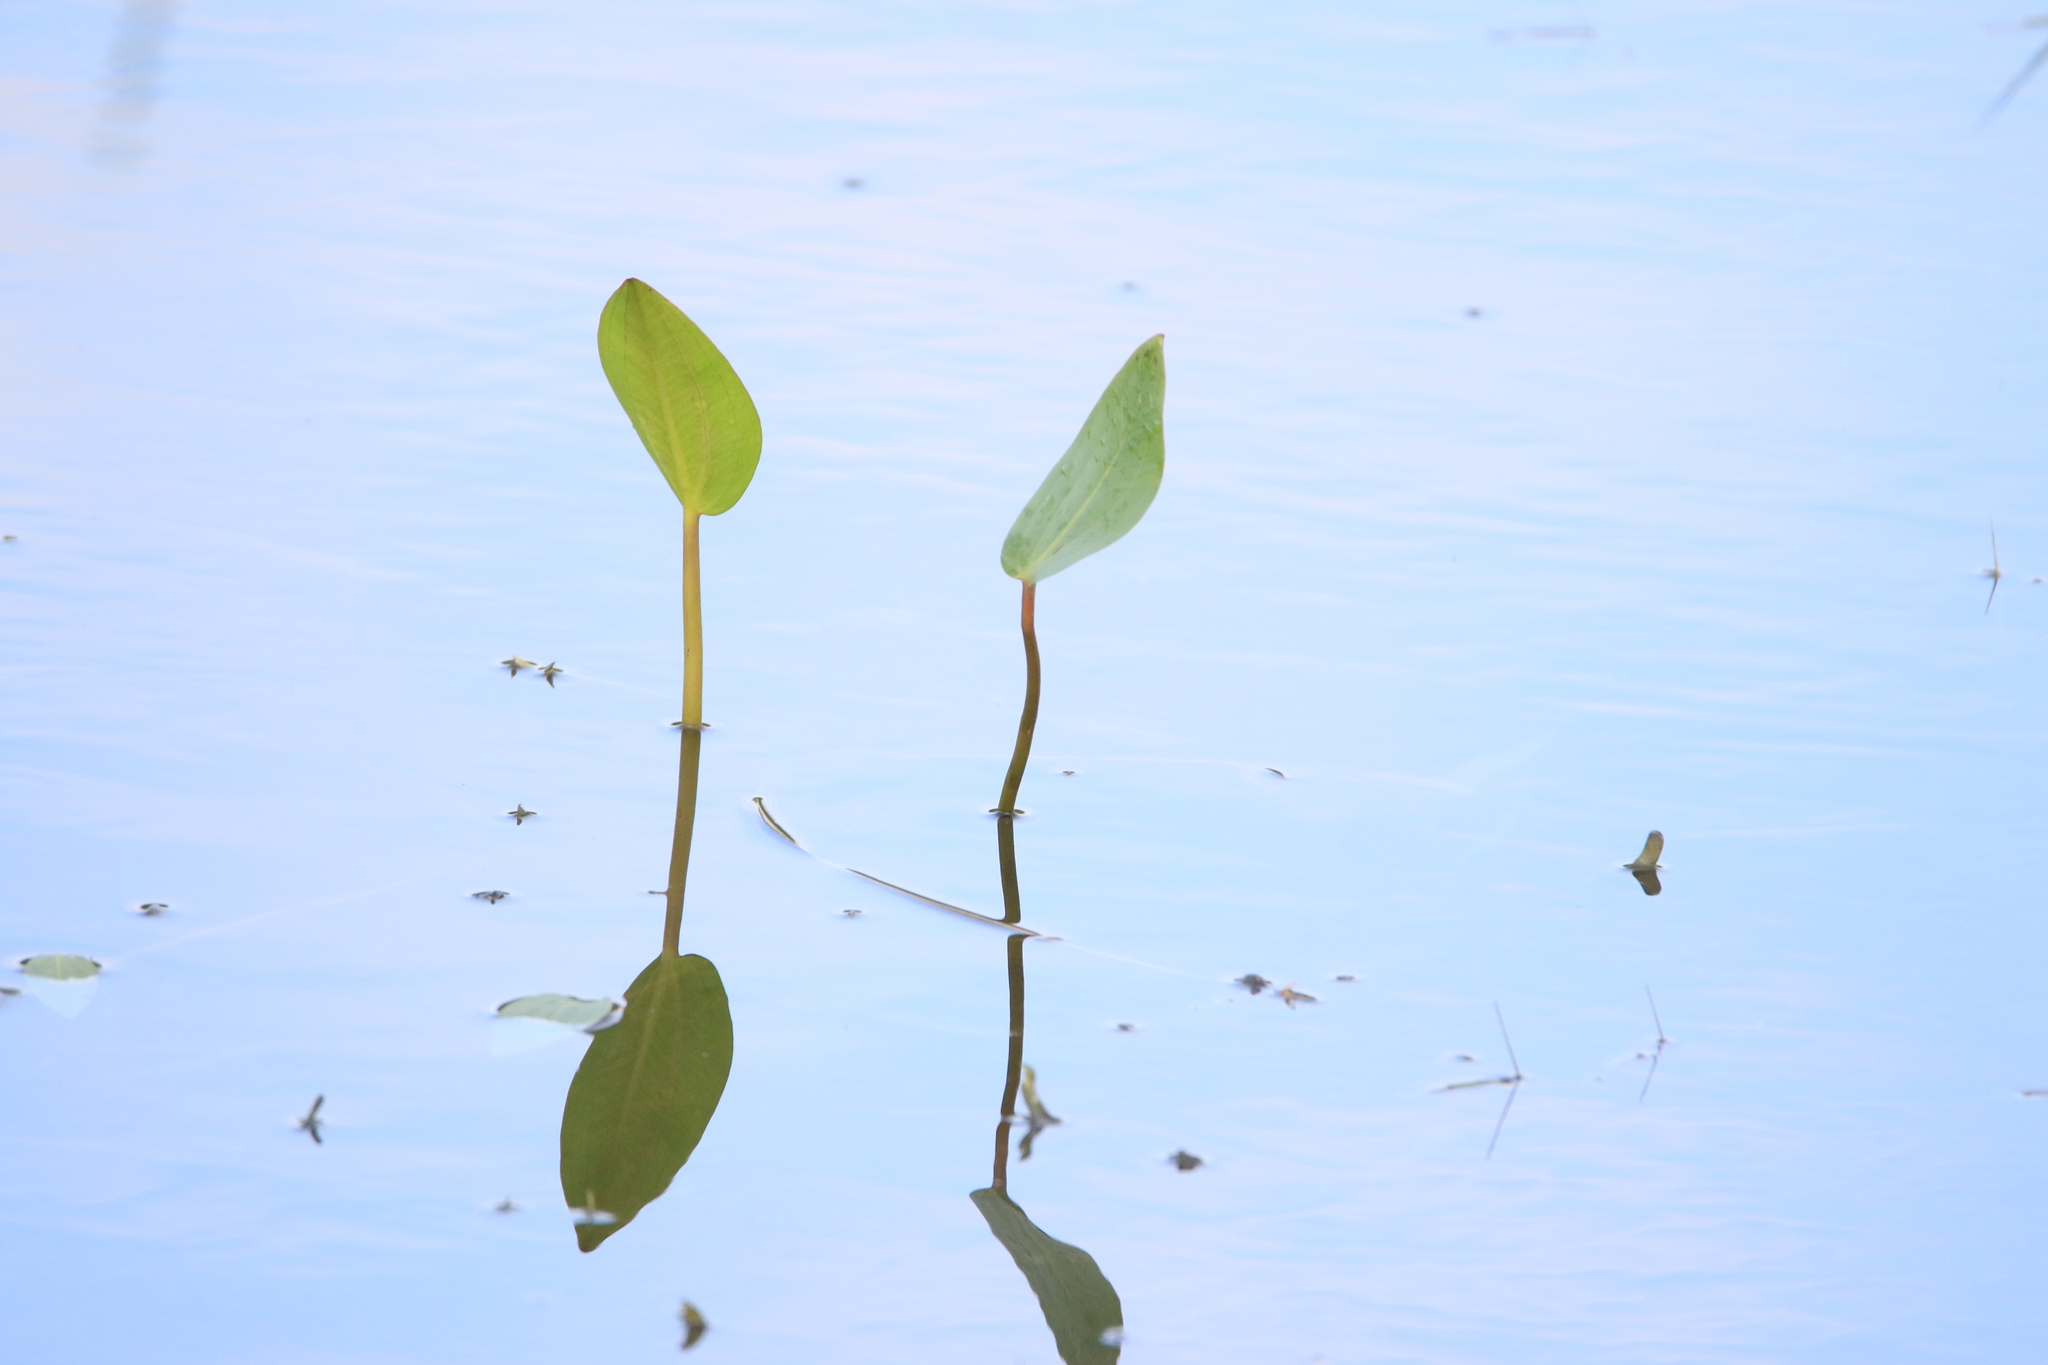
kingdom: Plantae
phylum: Tracheophyta
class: Liliopsida
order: Alismatales
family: Alismataceae
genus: Alisma
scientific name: Alisma plantago-aquatica
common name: Water-plantain
